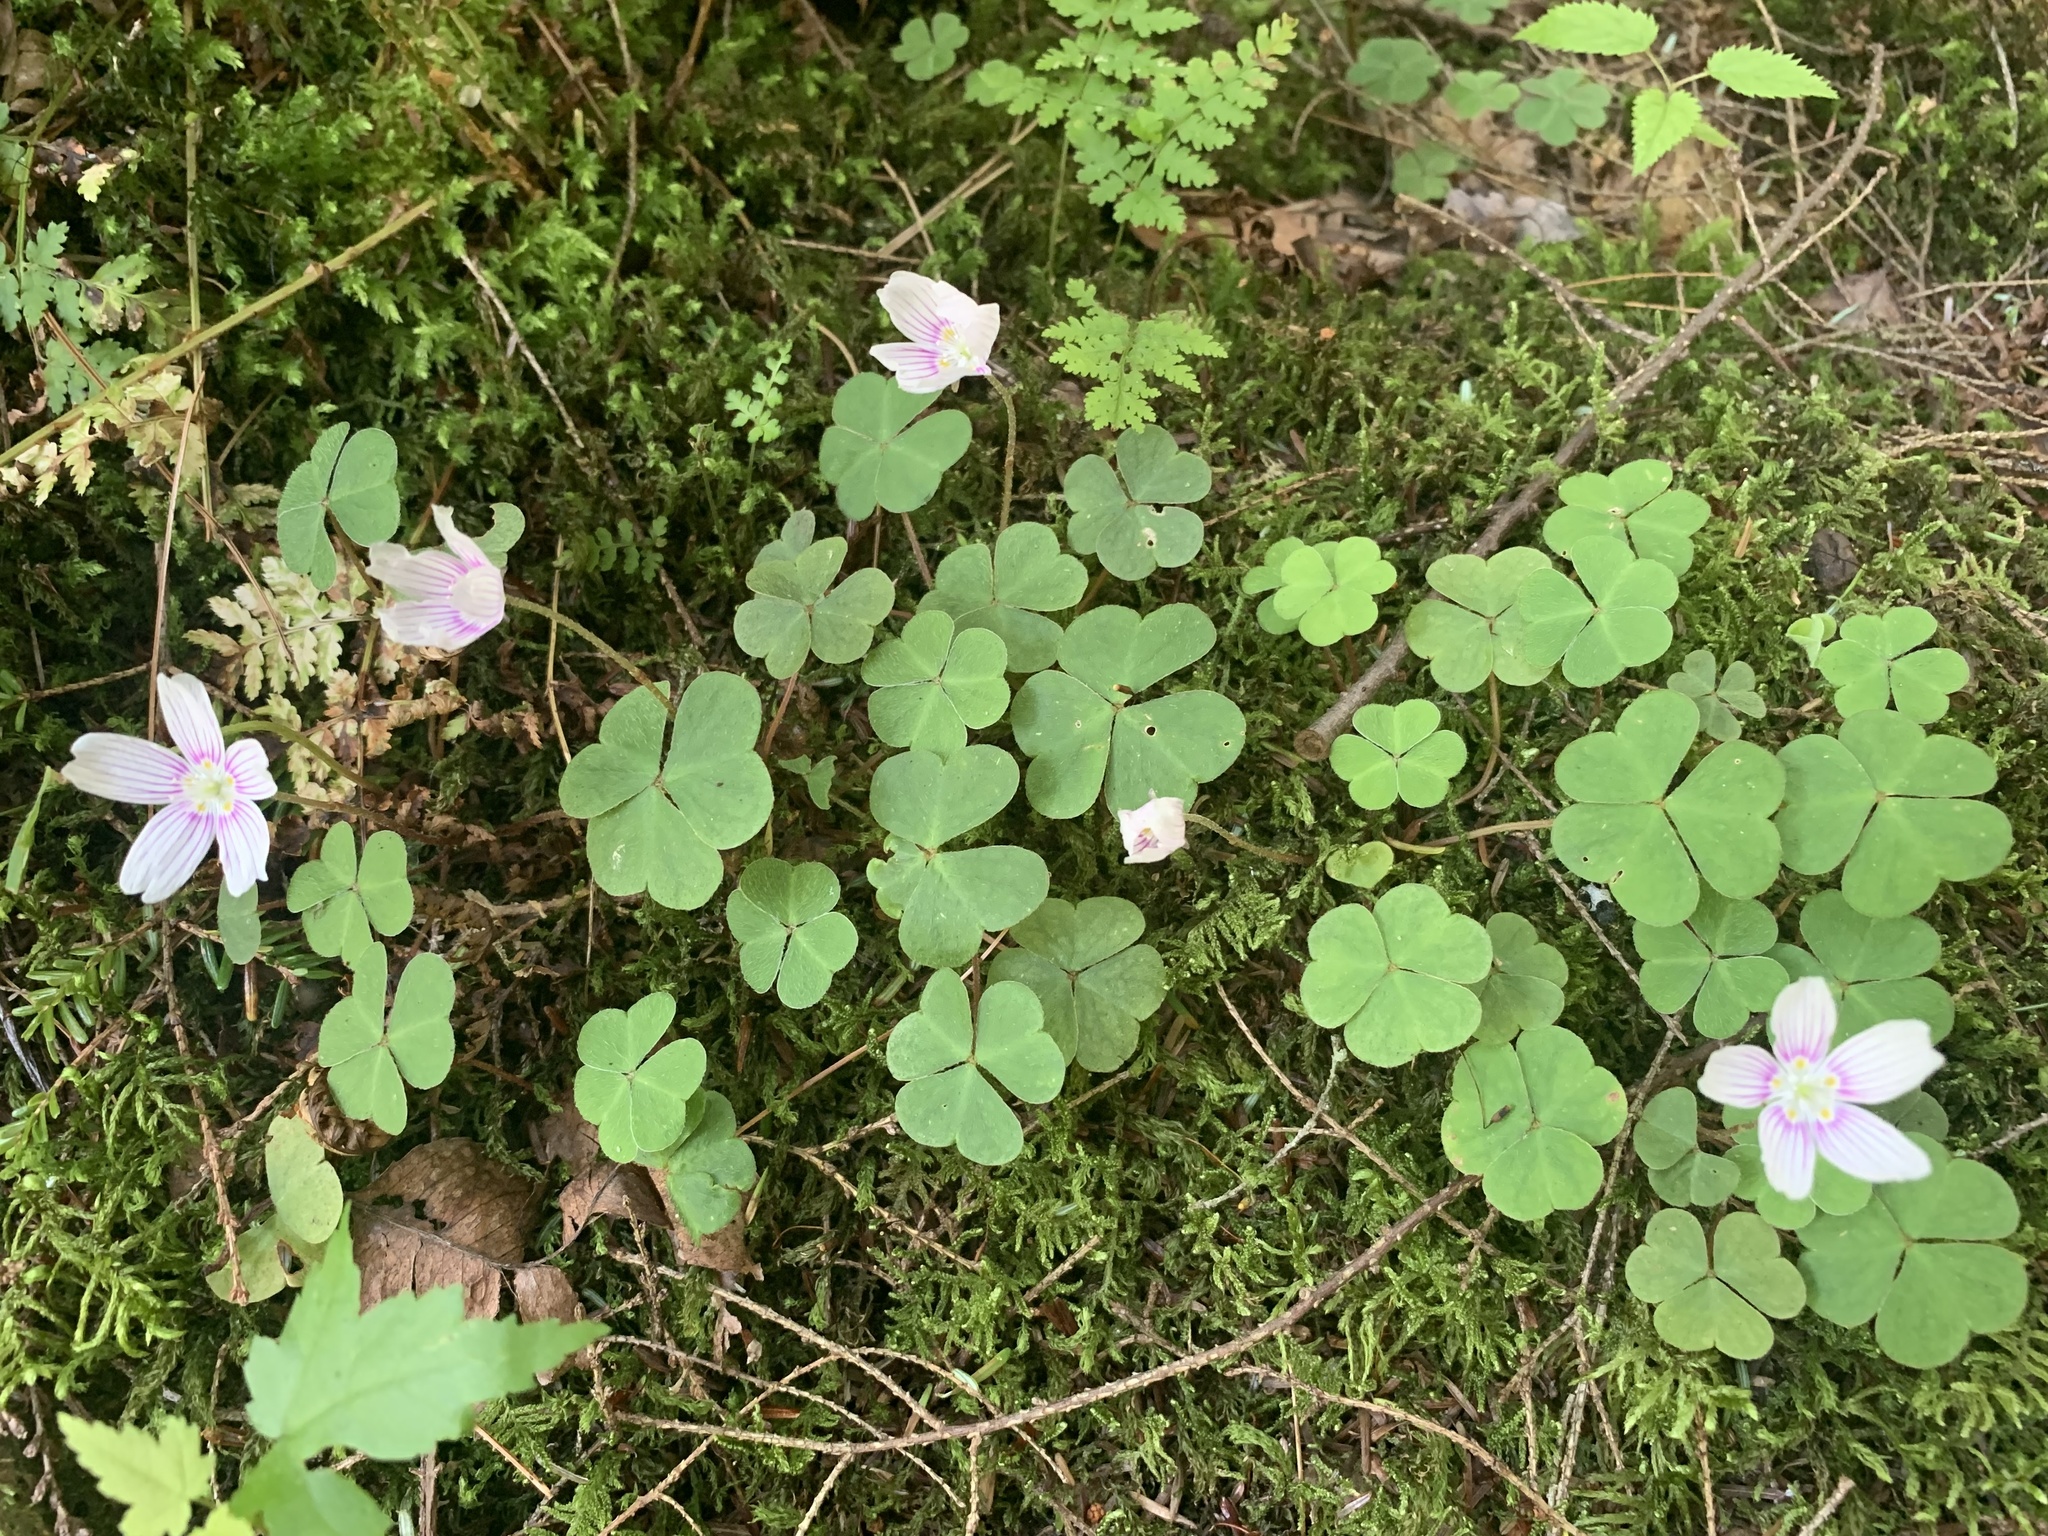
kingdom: Plantae
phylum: Tracheophyta
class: Magnoliopsida
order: Oxalidales
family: Oxalidaceae
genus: Oxalis
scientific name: Oxalis montana
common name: American wood-sorrel
